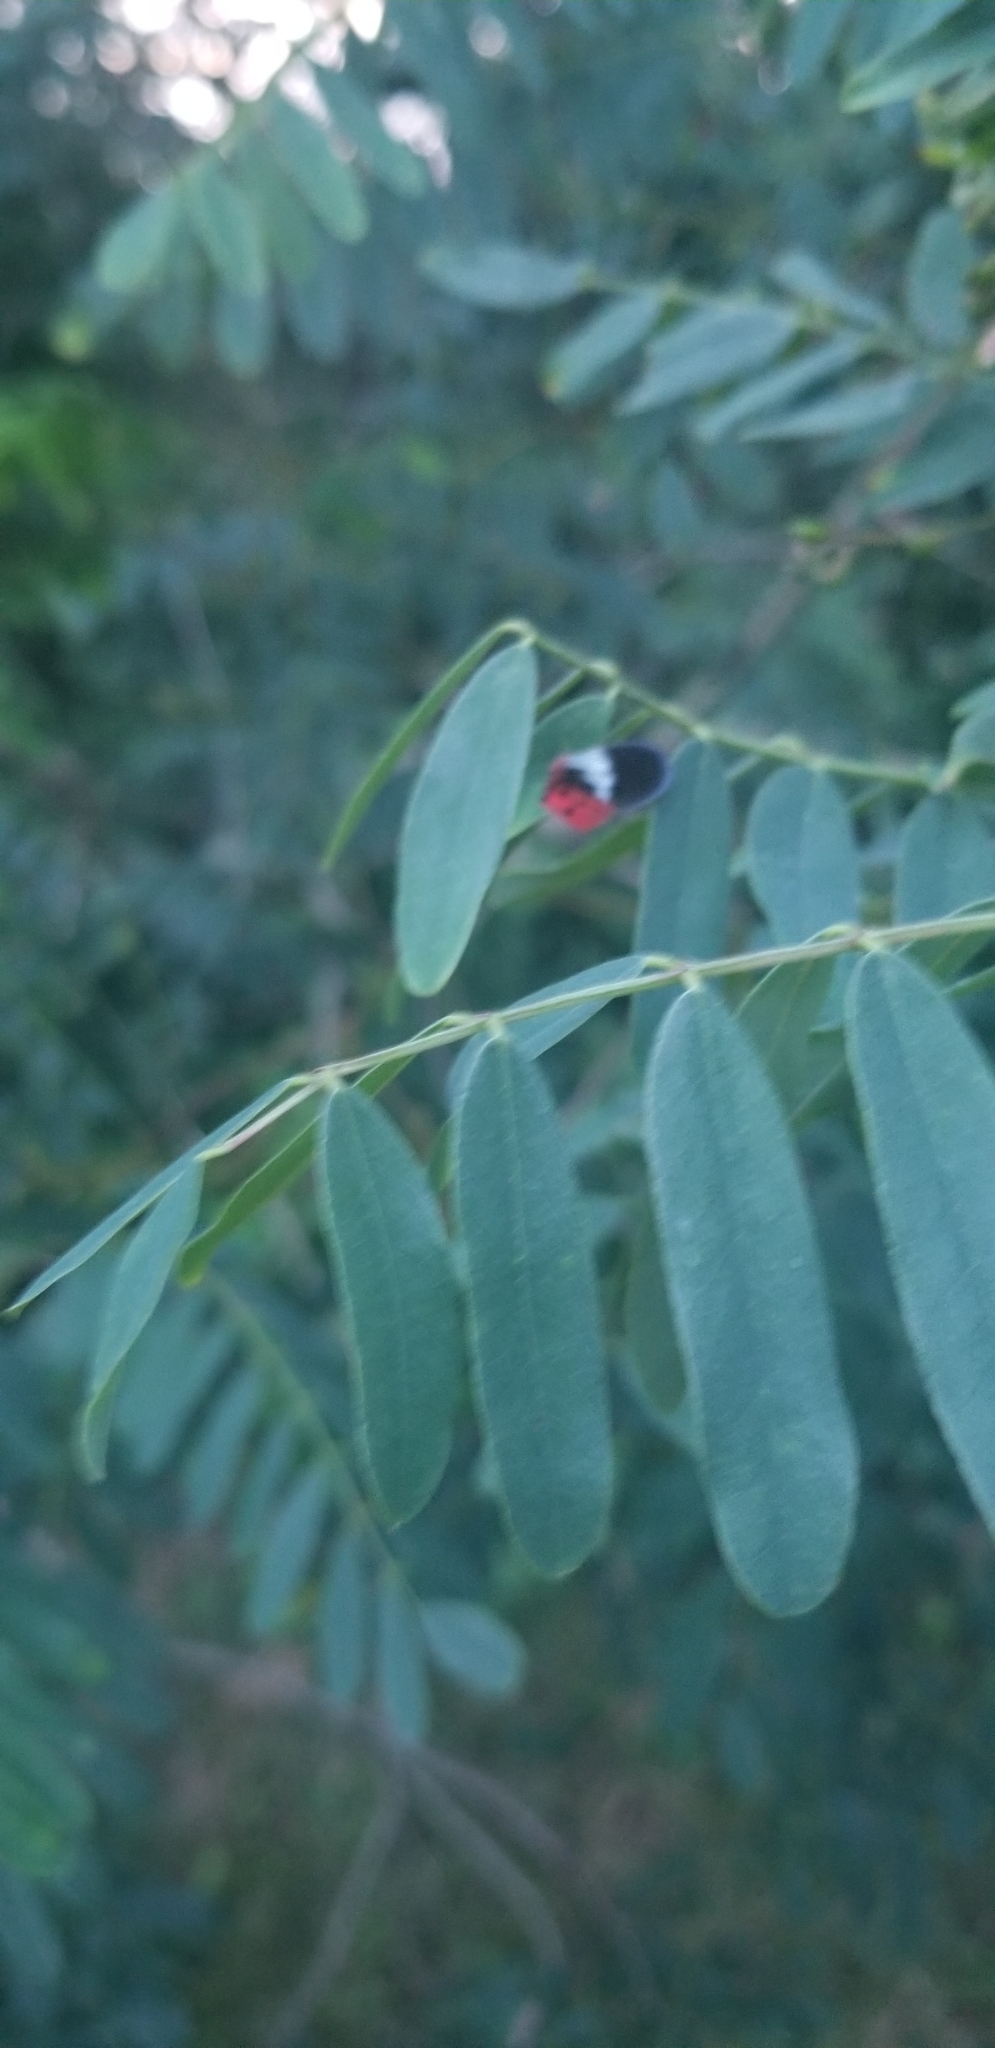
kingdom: Animalia
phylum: Arthropoda
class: Insecta
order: Hemiptera
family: Fulgoridae
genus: Lycorma
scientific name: Lycorma delicatula
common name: Spotted lanternfly
